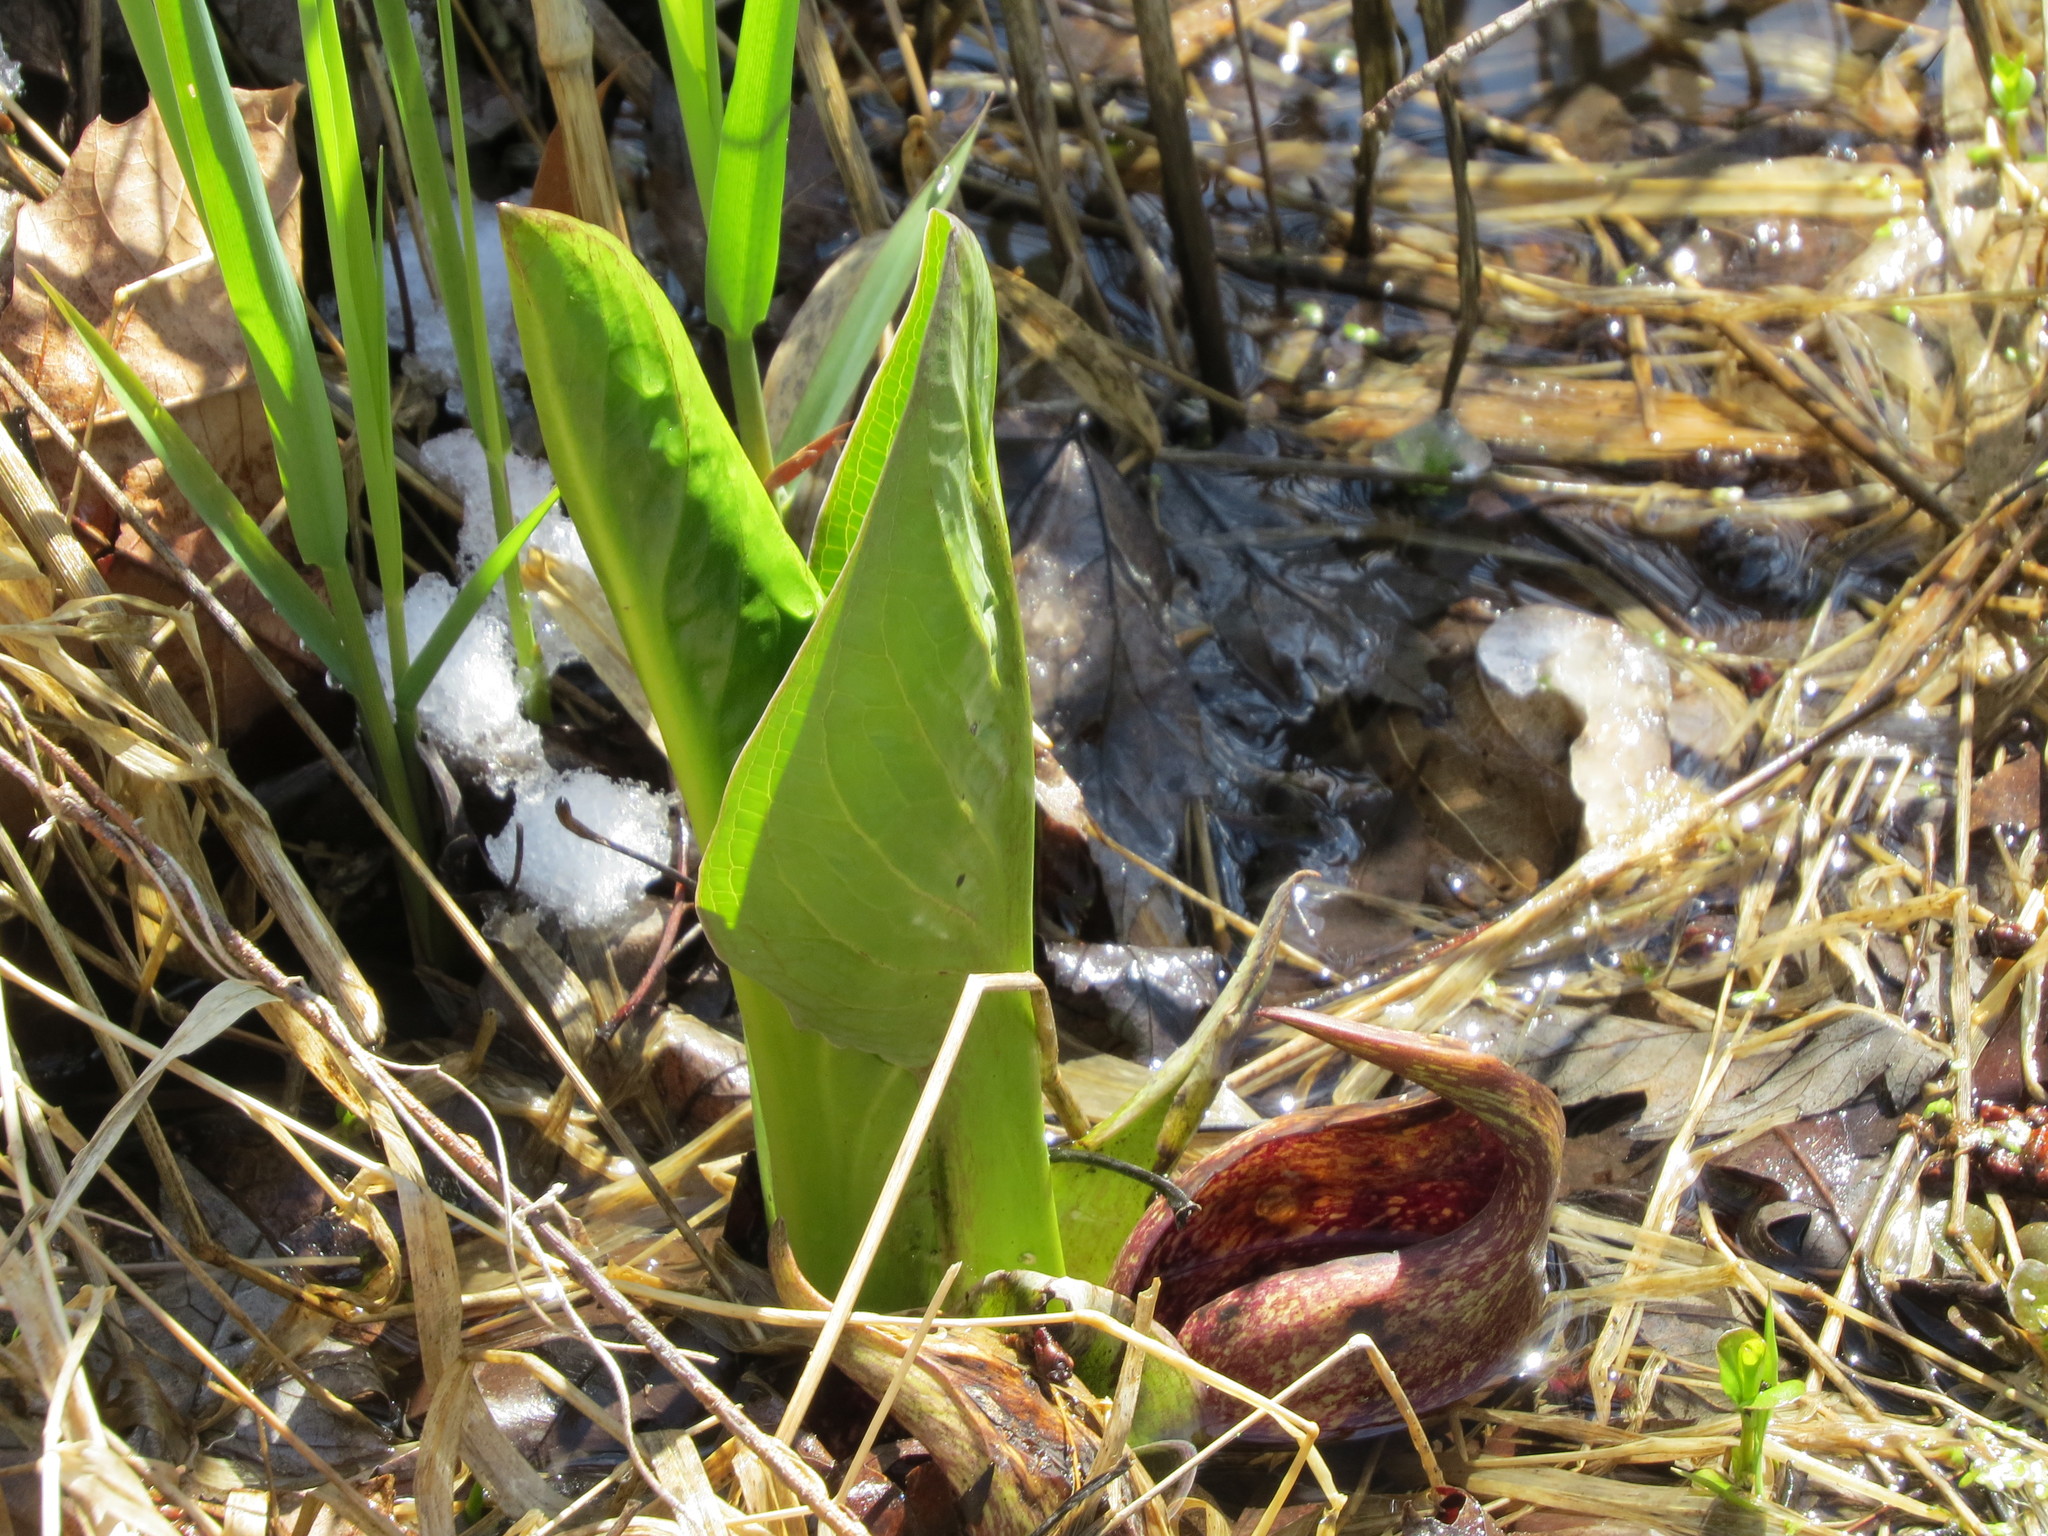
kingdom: Plantae
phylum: Tracheophyta
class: Liliopsida
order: Alismatales
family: Araceae
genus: Symplocarpus
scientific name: Symplocarpus foetidus
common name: Eastern skunk cabbage
